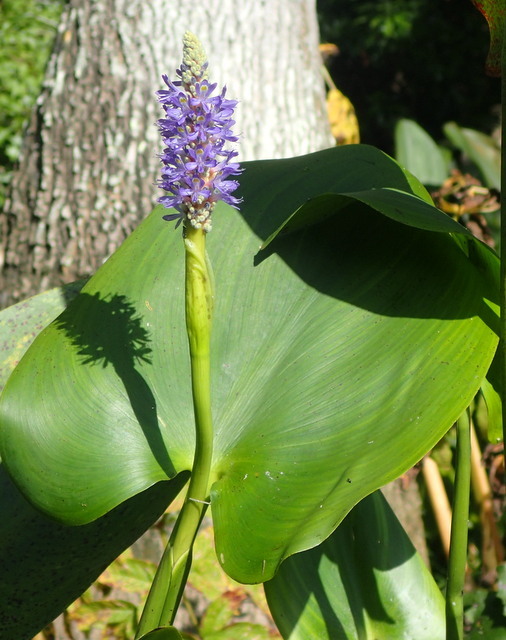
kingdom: Plantae
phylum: Tracheophyta
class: Liliopsida
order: Commelinales
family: Pontederiaceae
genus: Pontederia
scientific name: Pontederia cordata
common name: Pickerelweed
